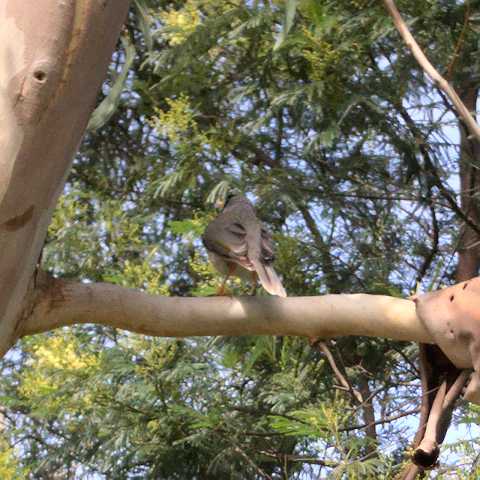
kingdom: Animalia
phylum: Chordata
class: Aves
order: Passeriformes
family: Meliphagidae
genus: Manorina
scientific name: Manorina melanocephala
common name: Noisy miner
